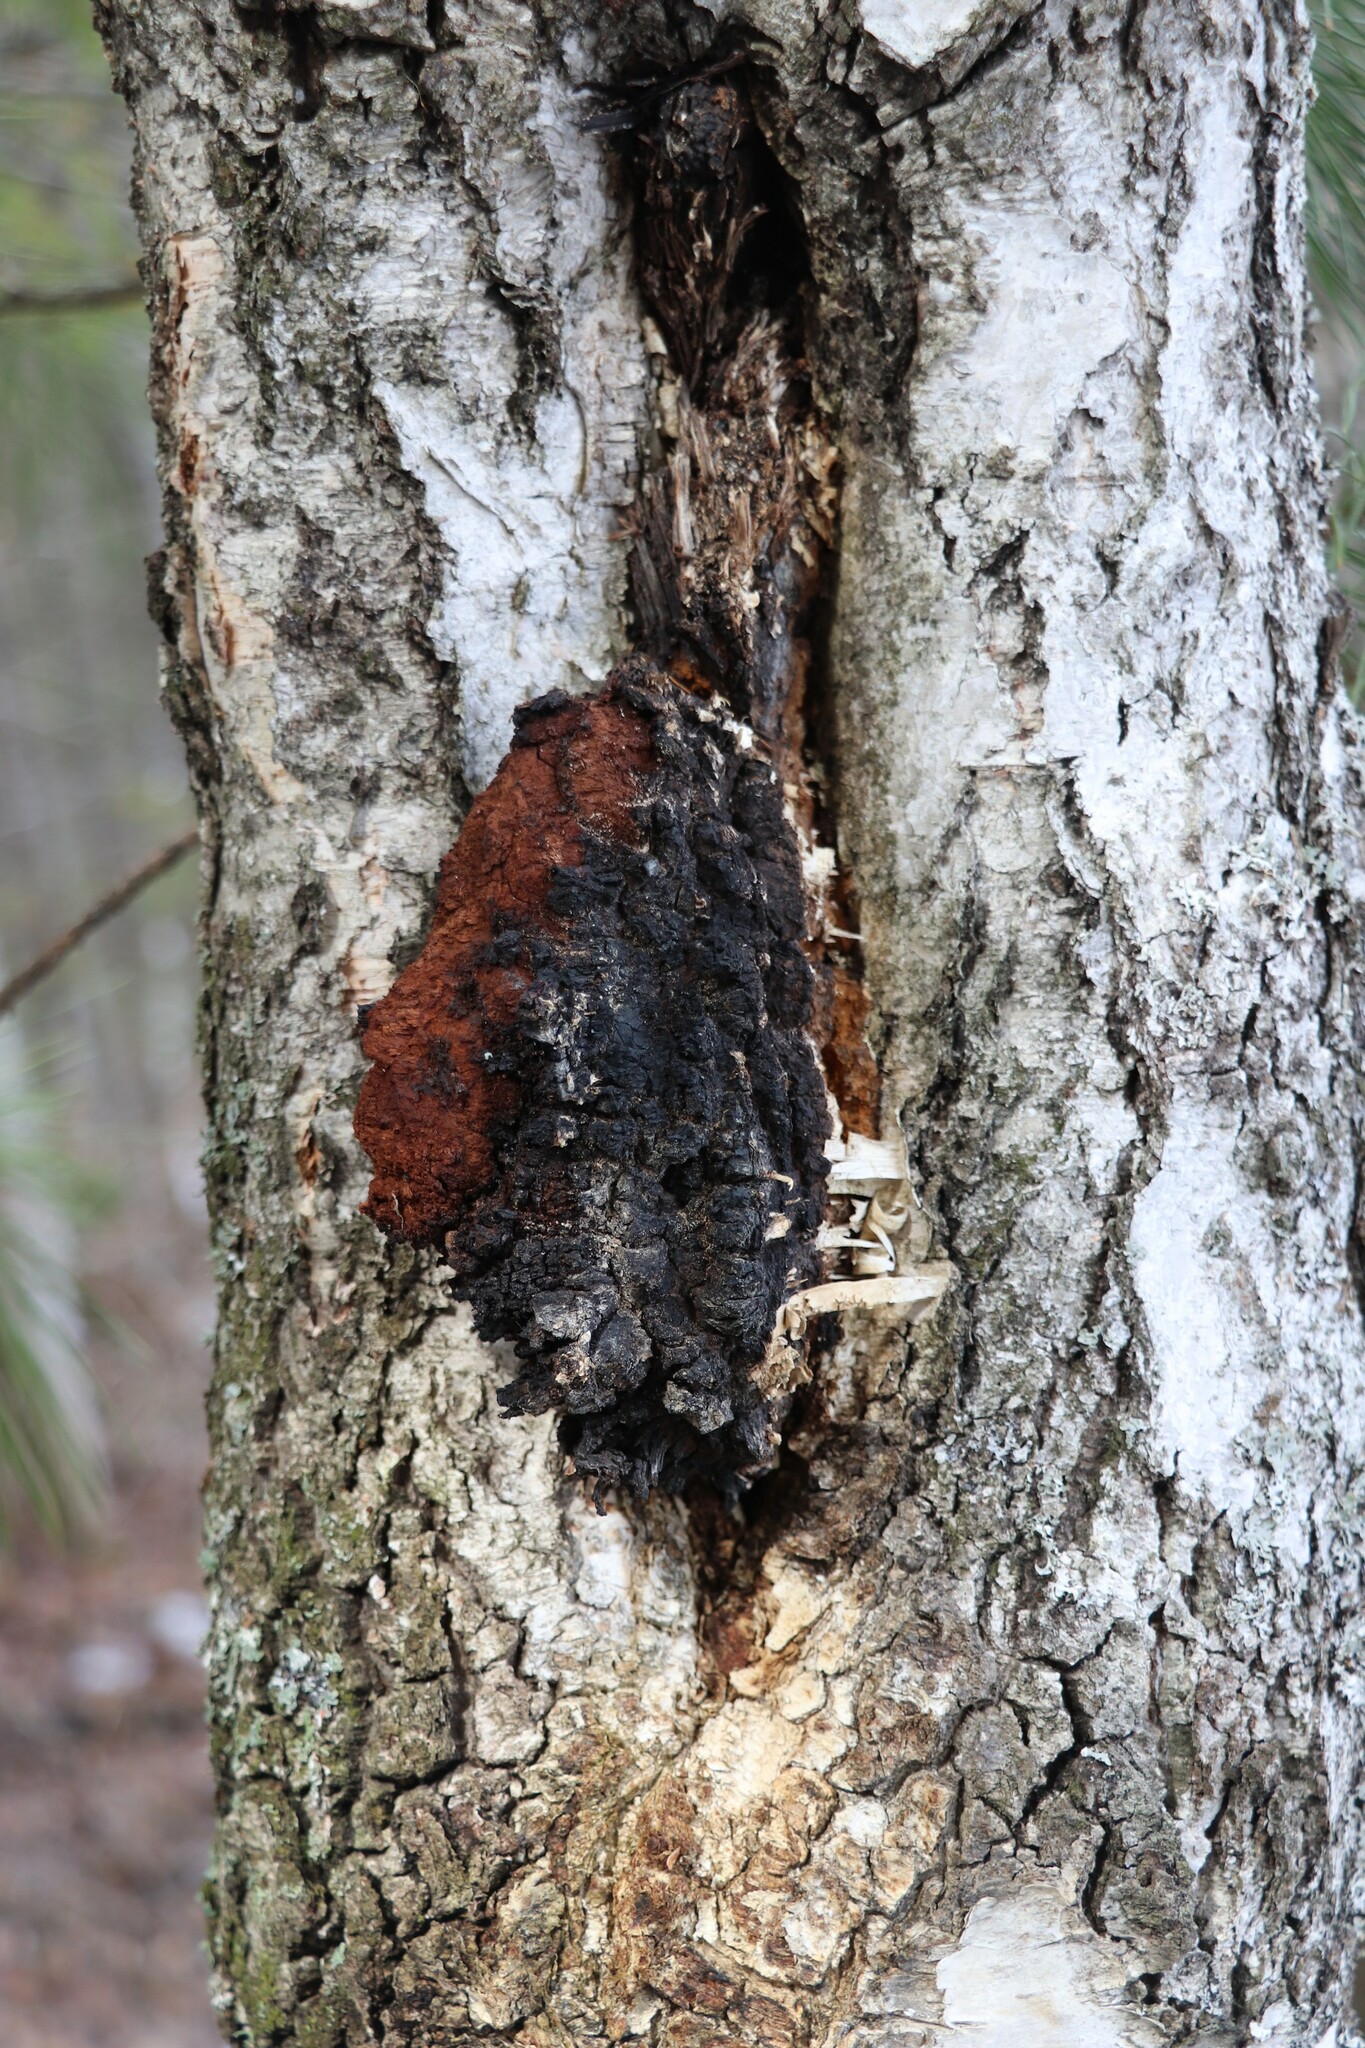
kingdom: Fungi
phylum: Basidiomycota
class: Agaricomycetes
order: Hymenochaetales
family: Hymenochaetaceae
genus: Inonotus
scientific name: Inonotus obliquus
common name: Chaga
